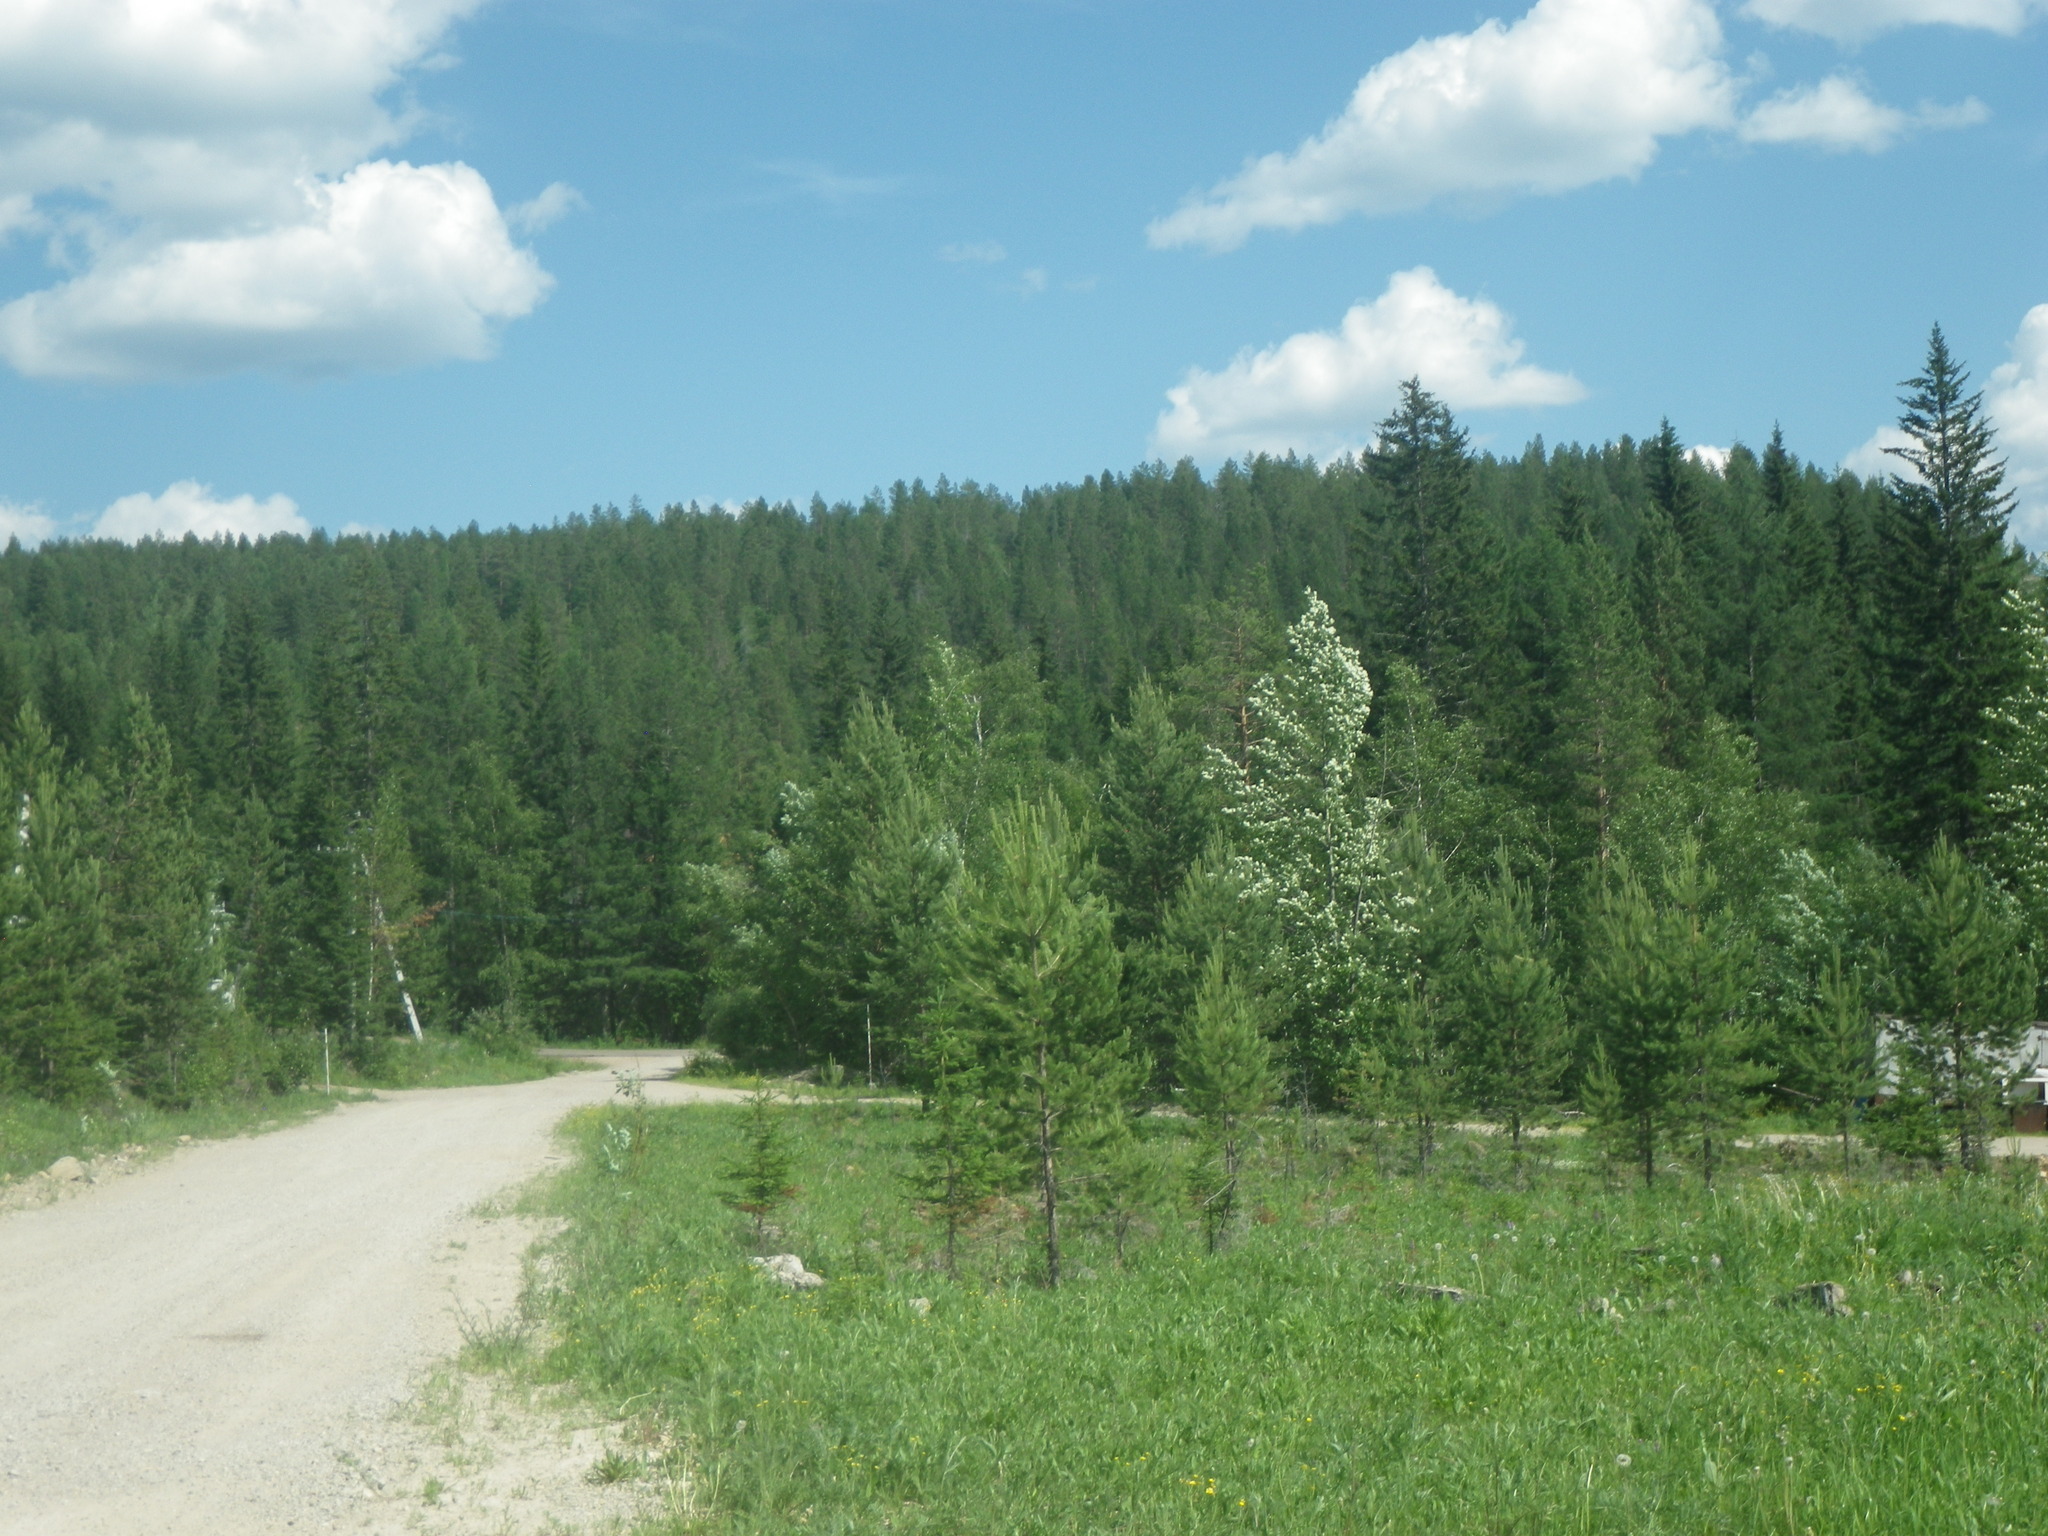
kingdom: Plantae
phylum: Tracheophyta
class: Pinopsida
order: Pinales
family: Pinaceae
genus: Picea
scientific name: Picea obovata
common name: Siberian spruce
